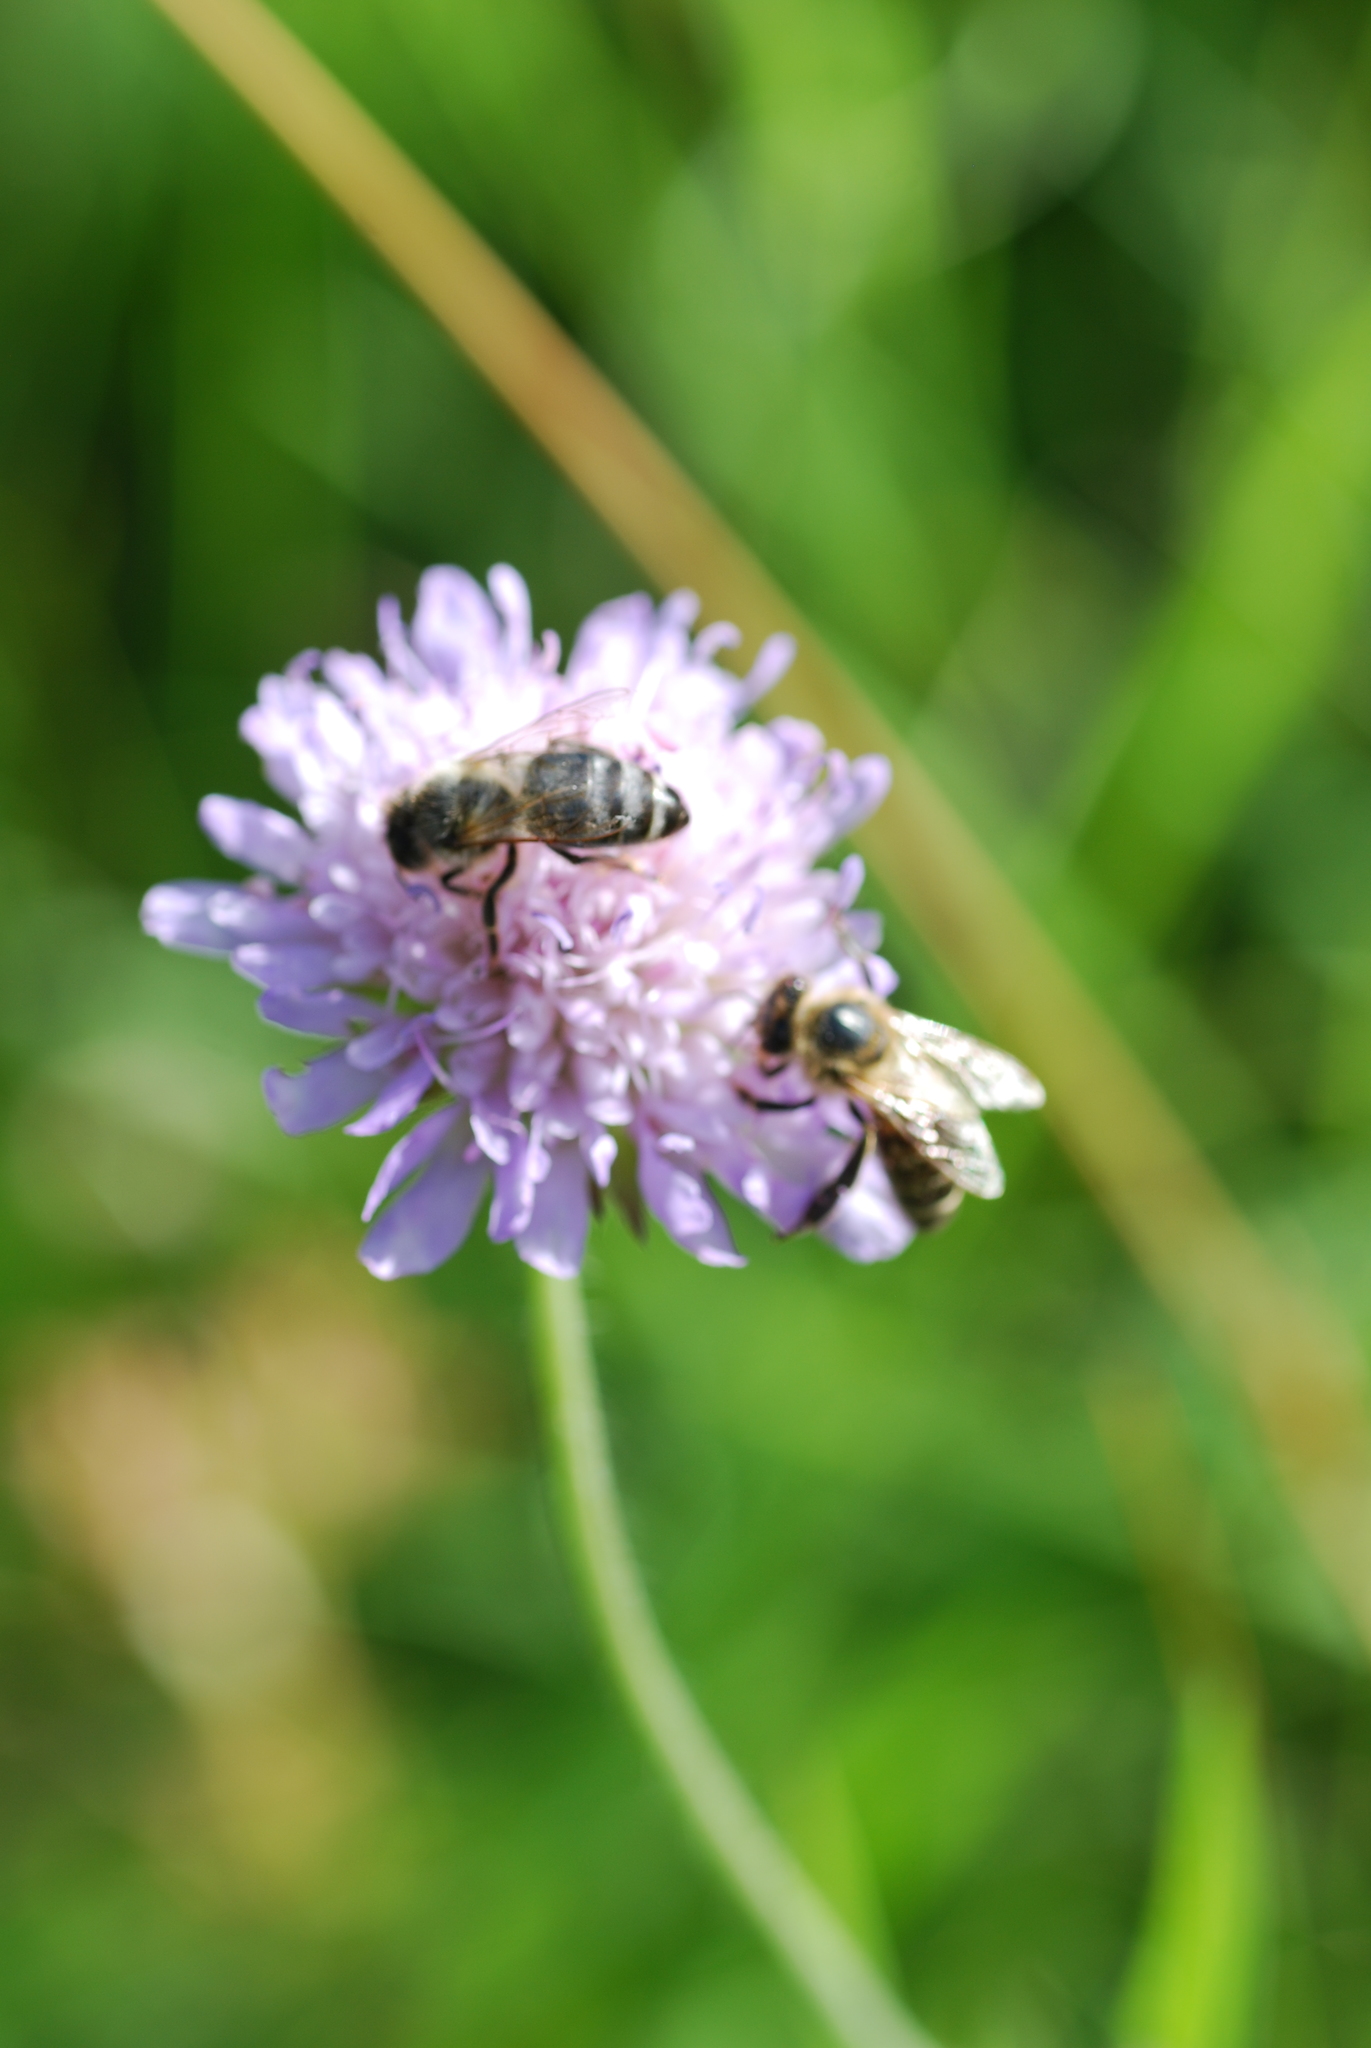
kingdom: Animalia
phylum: Arthropoda
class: Insecta
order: Hymenoptera
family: Apidae
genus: Apis
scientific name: Apis mellifera
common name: Honey bee
